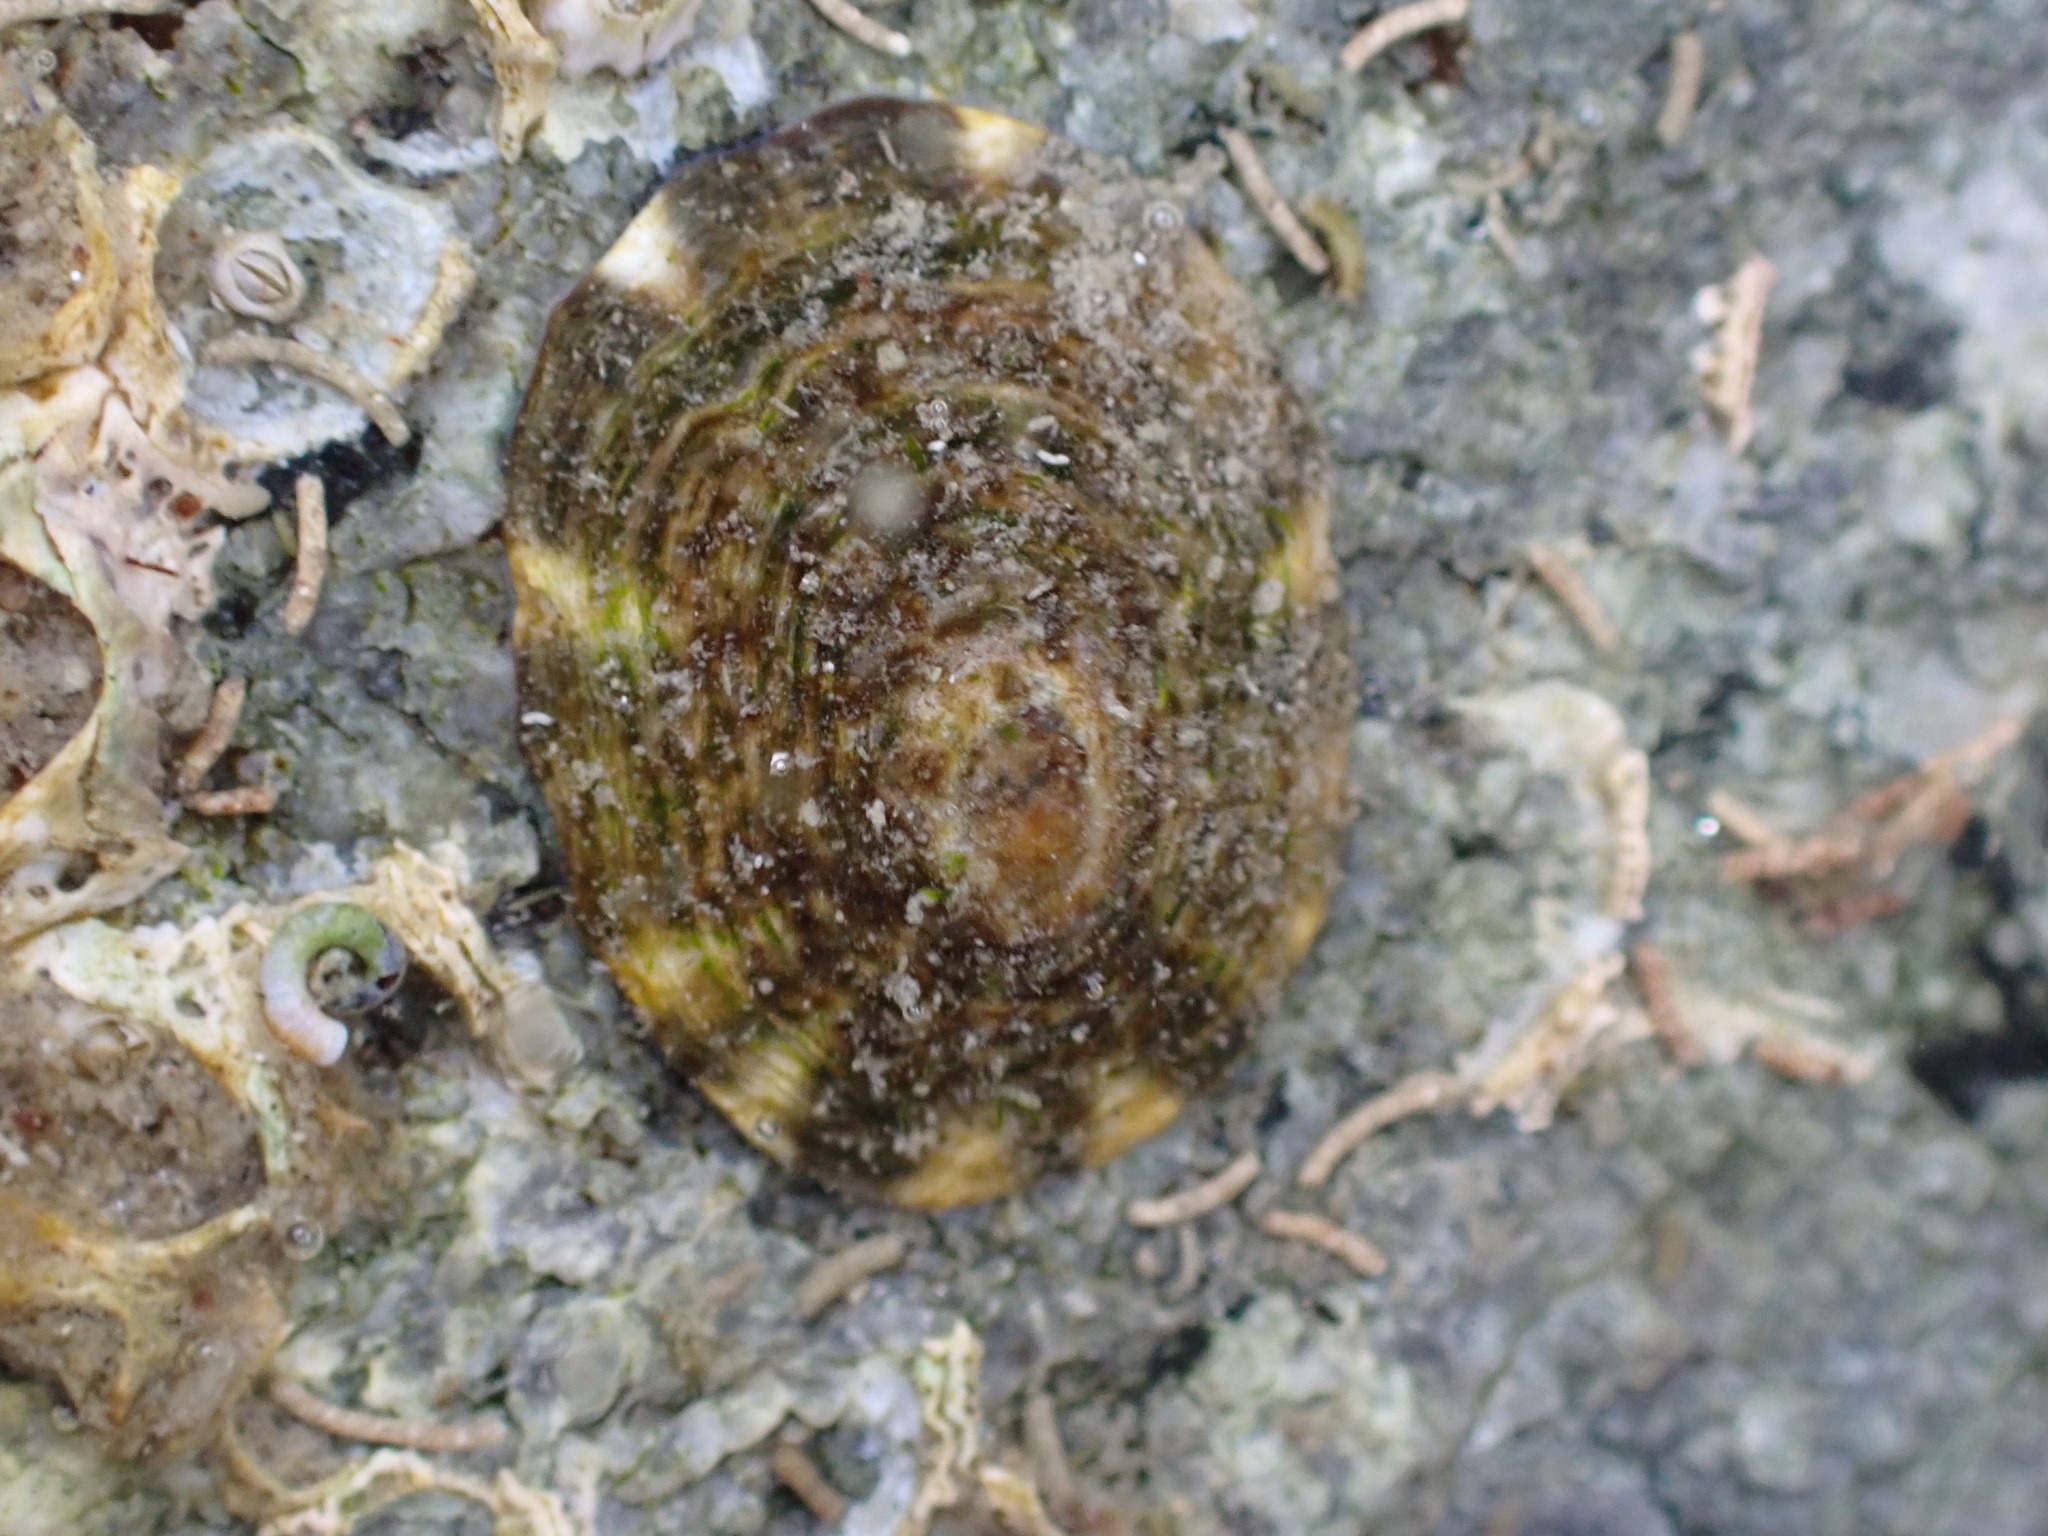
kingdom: Animalia
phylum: Mollusca
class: Gastropoda
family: Lottiidae
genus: Lottia
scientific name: Lottia scutum
